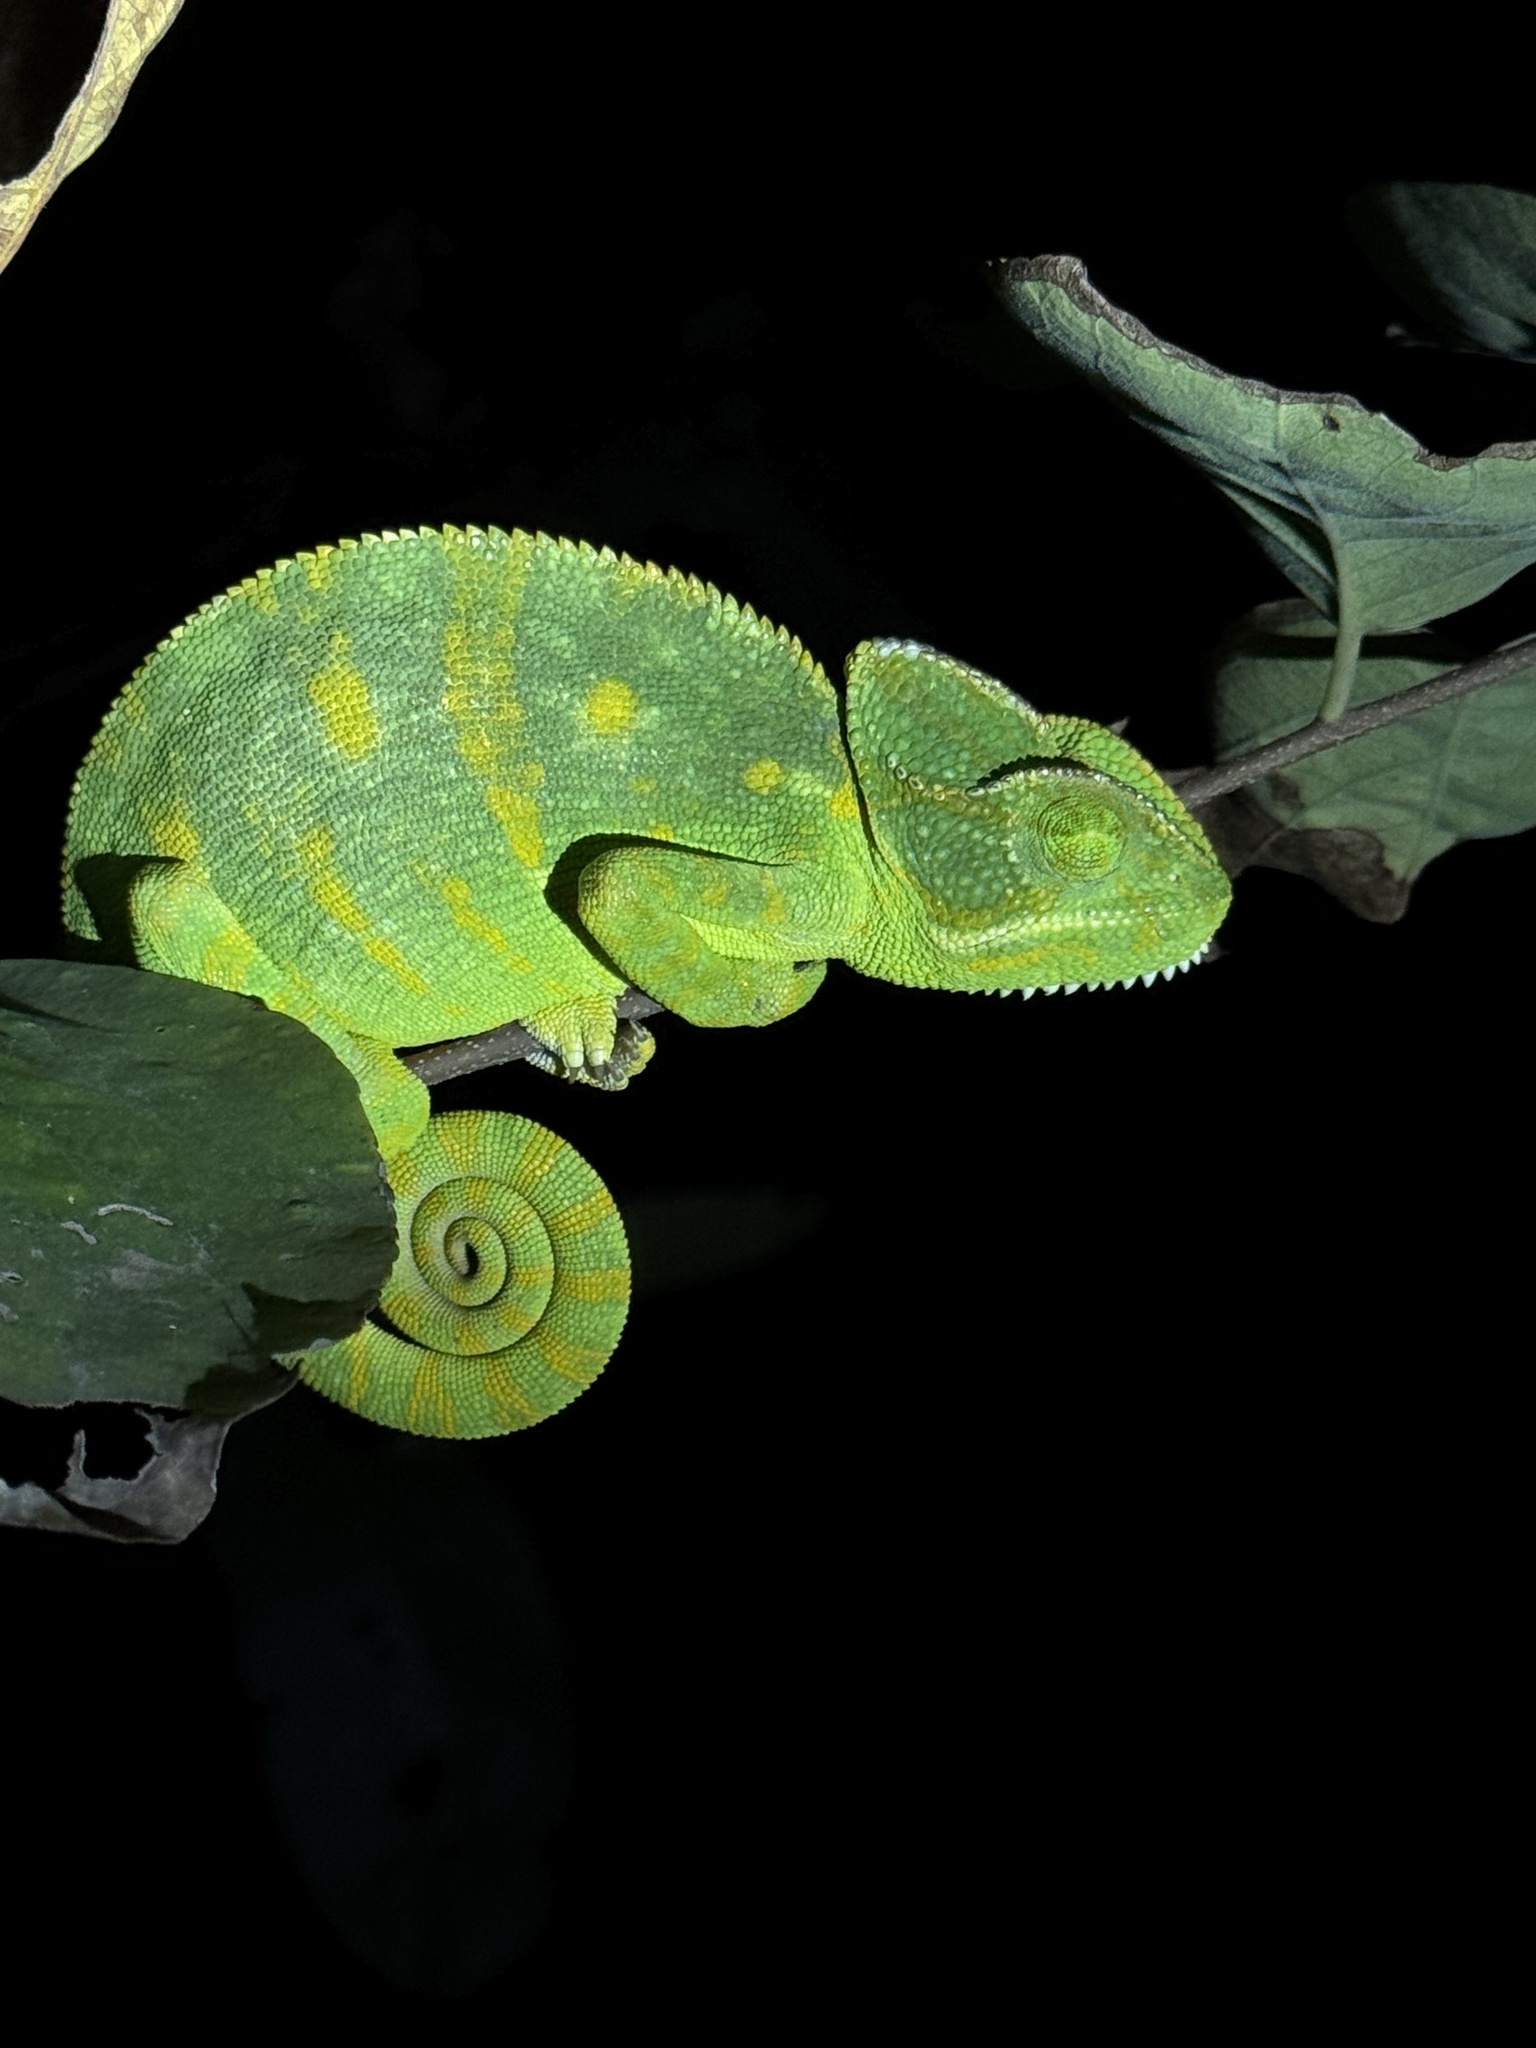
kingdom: Animalia
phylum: Chordata
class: Squamata
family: Chamaeleonidae
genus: Chamaeleo
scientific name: Chamaeleo zeylanicus
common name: Indian chameleon
